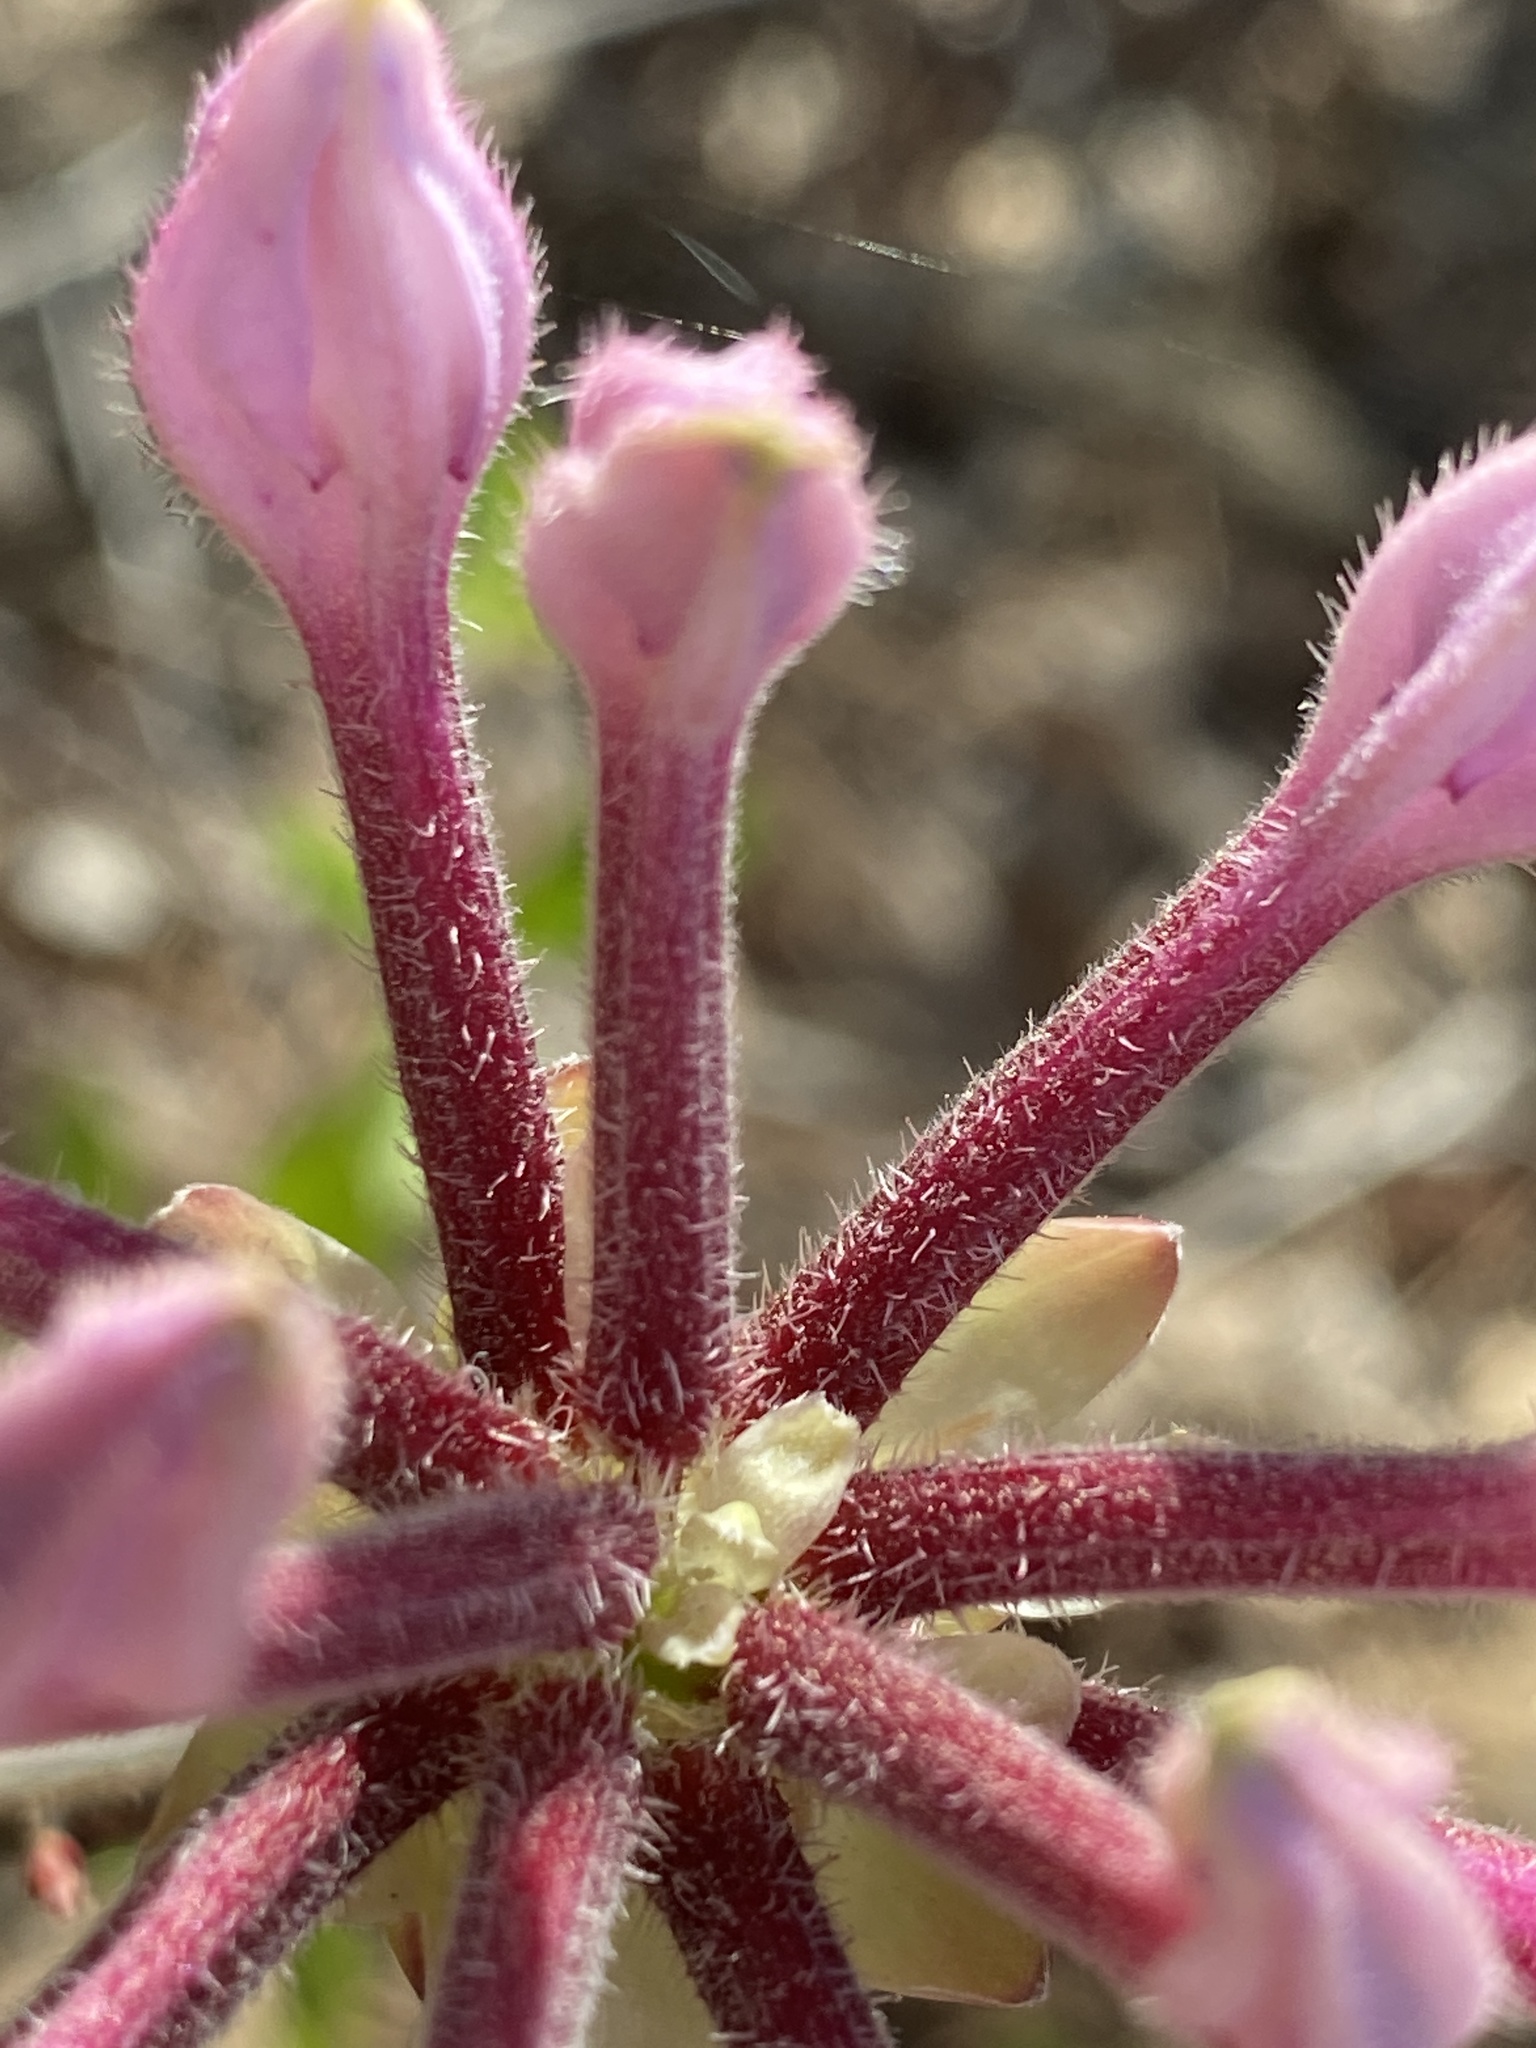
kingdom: Plantae
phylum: Tracheophyta
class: Magnoliopsida
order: Ericales
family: Ericaceae
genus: Rhododendron
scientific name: Rhododendron periclymenoides
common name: Election-pink
